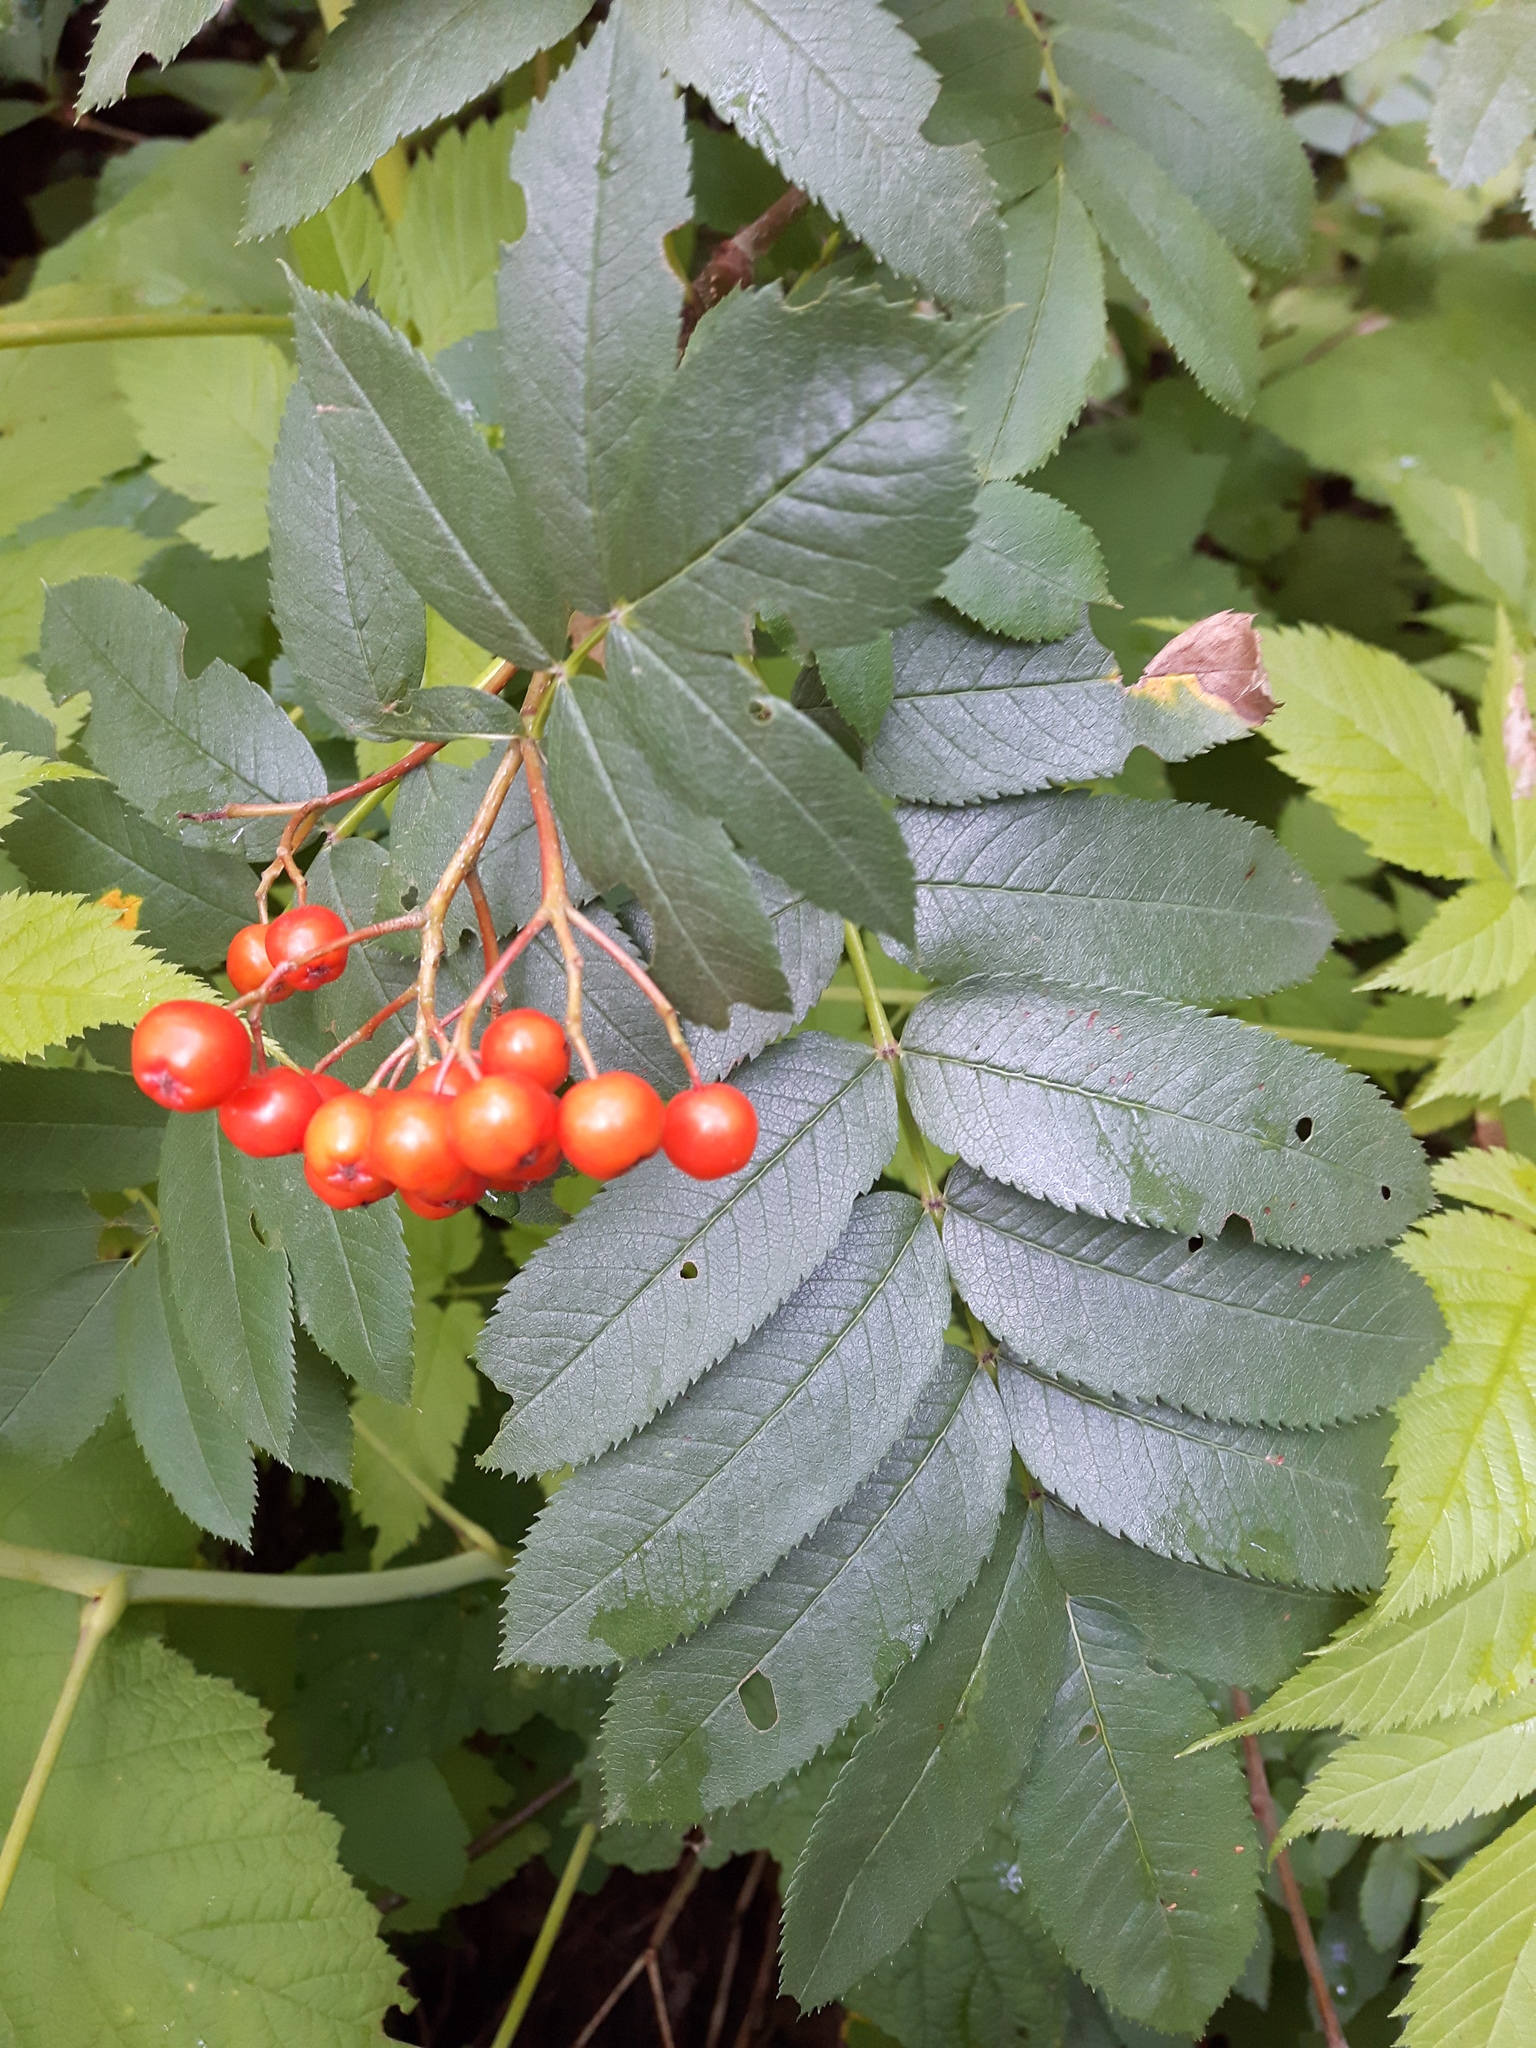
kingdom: Plantae
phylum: Tracheophyta
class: Magnoliopsida
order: Rosales
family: Rosaceae
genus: Sorbus
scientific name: Sorbus scopulina
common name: Greene's mountain-ash
